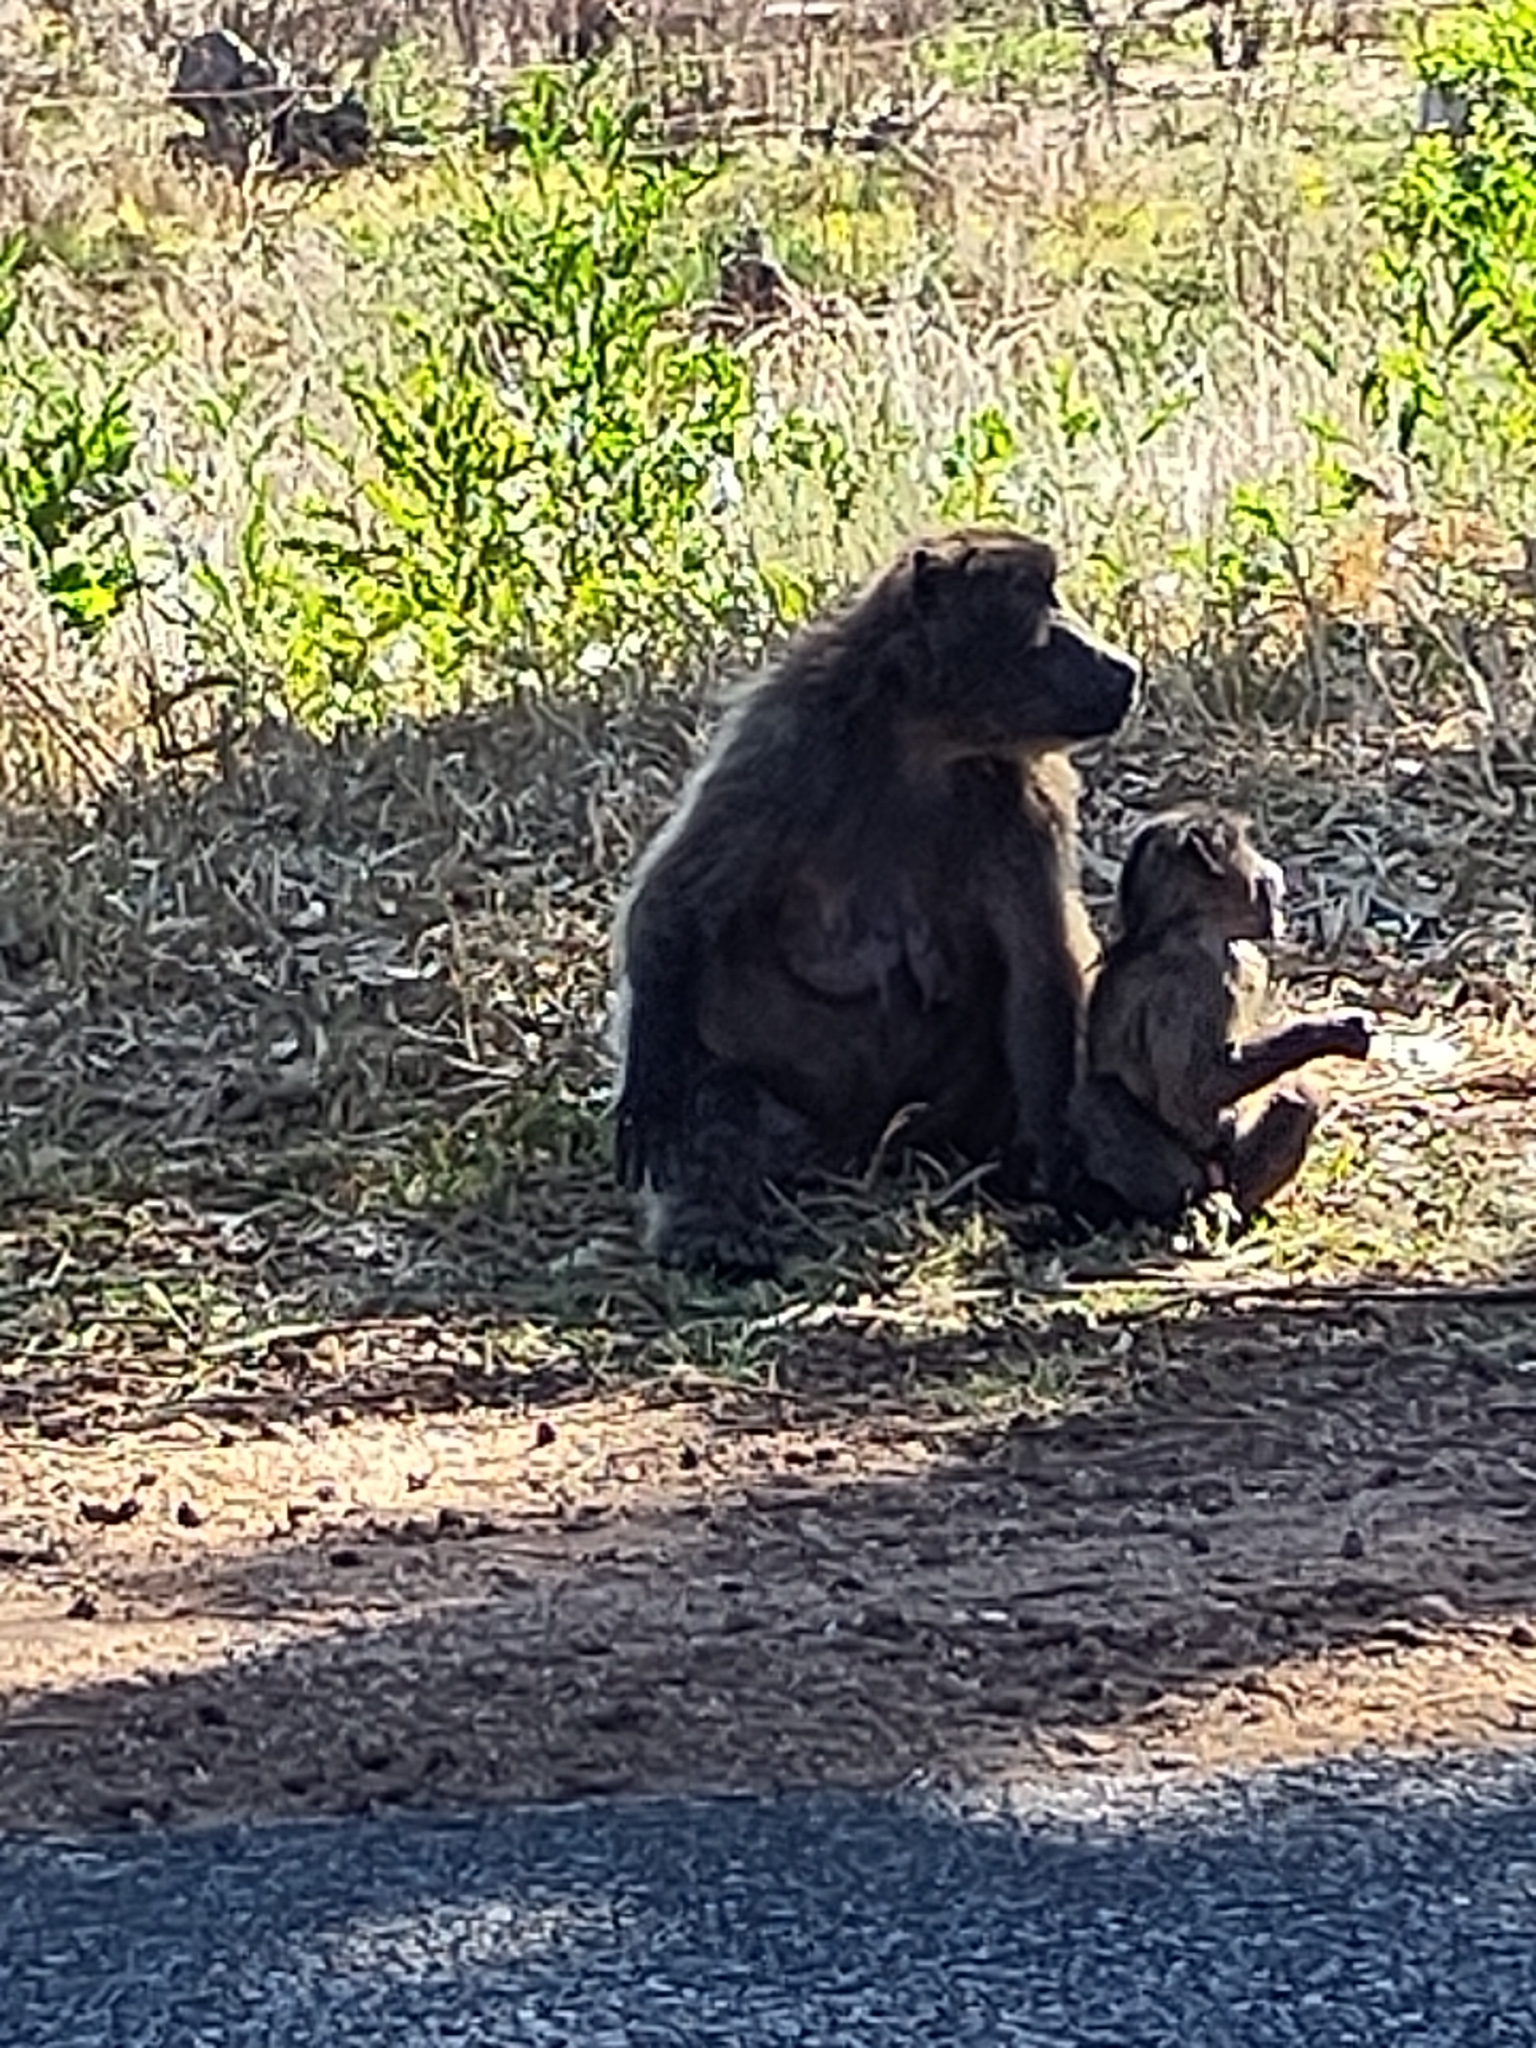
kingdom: Animalia
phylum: Chordata
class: Mammalia
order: Primates
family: Cercopithecidae
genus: Papio
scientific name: Papio ursinus
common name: Chacma baboon
